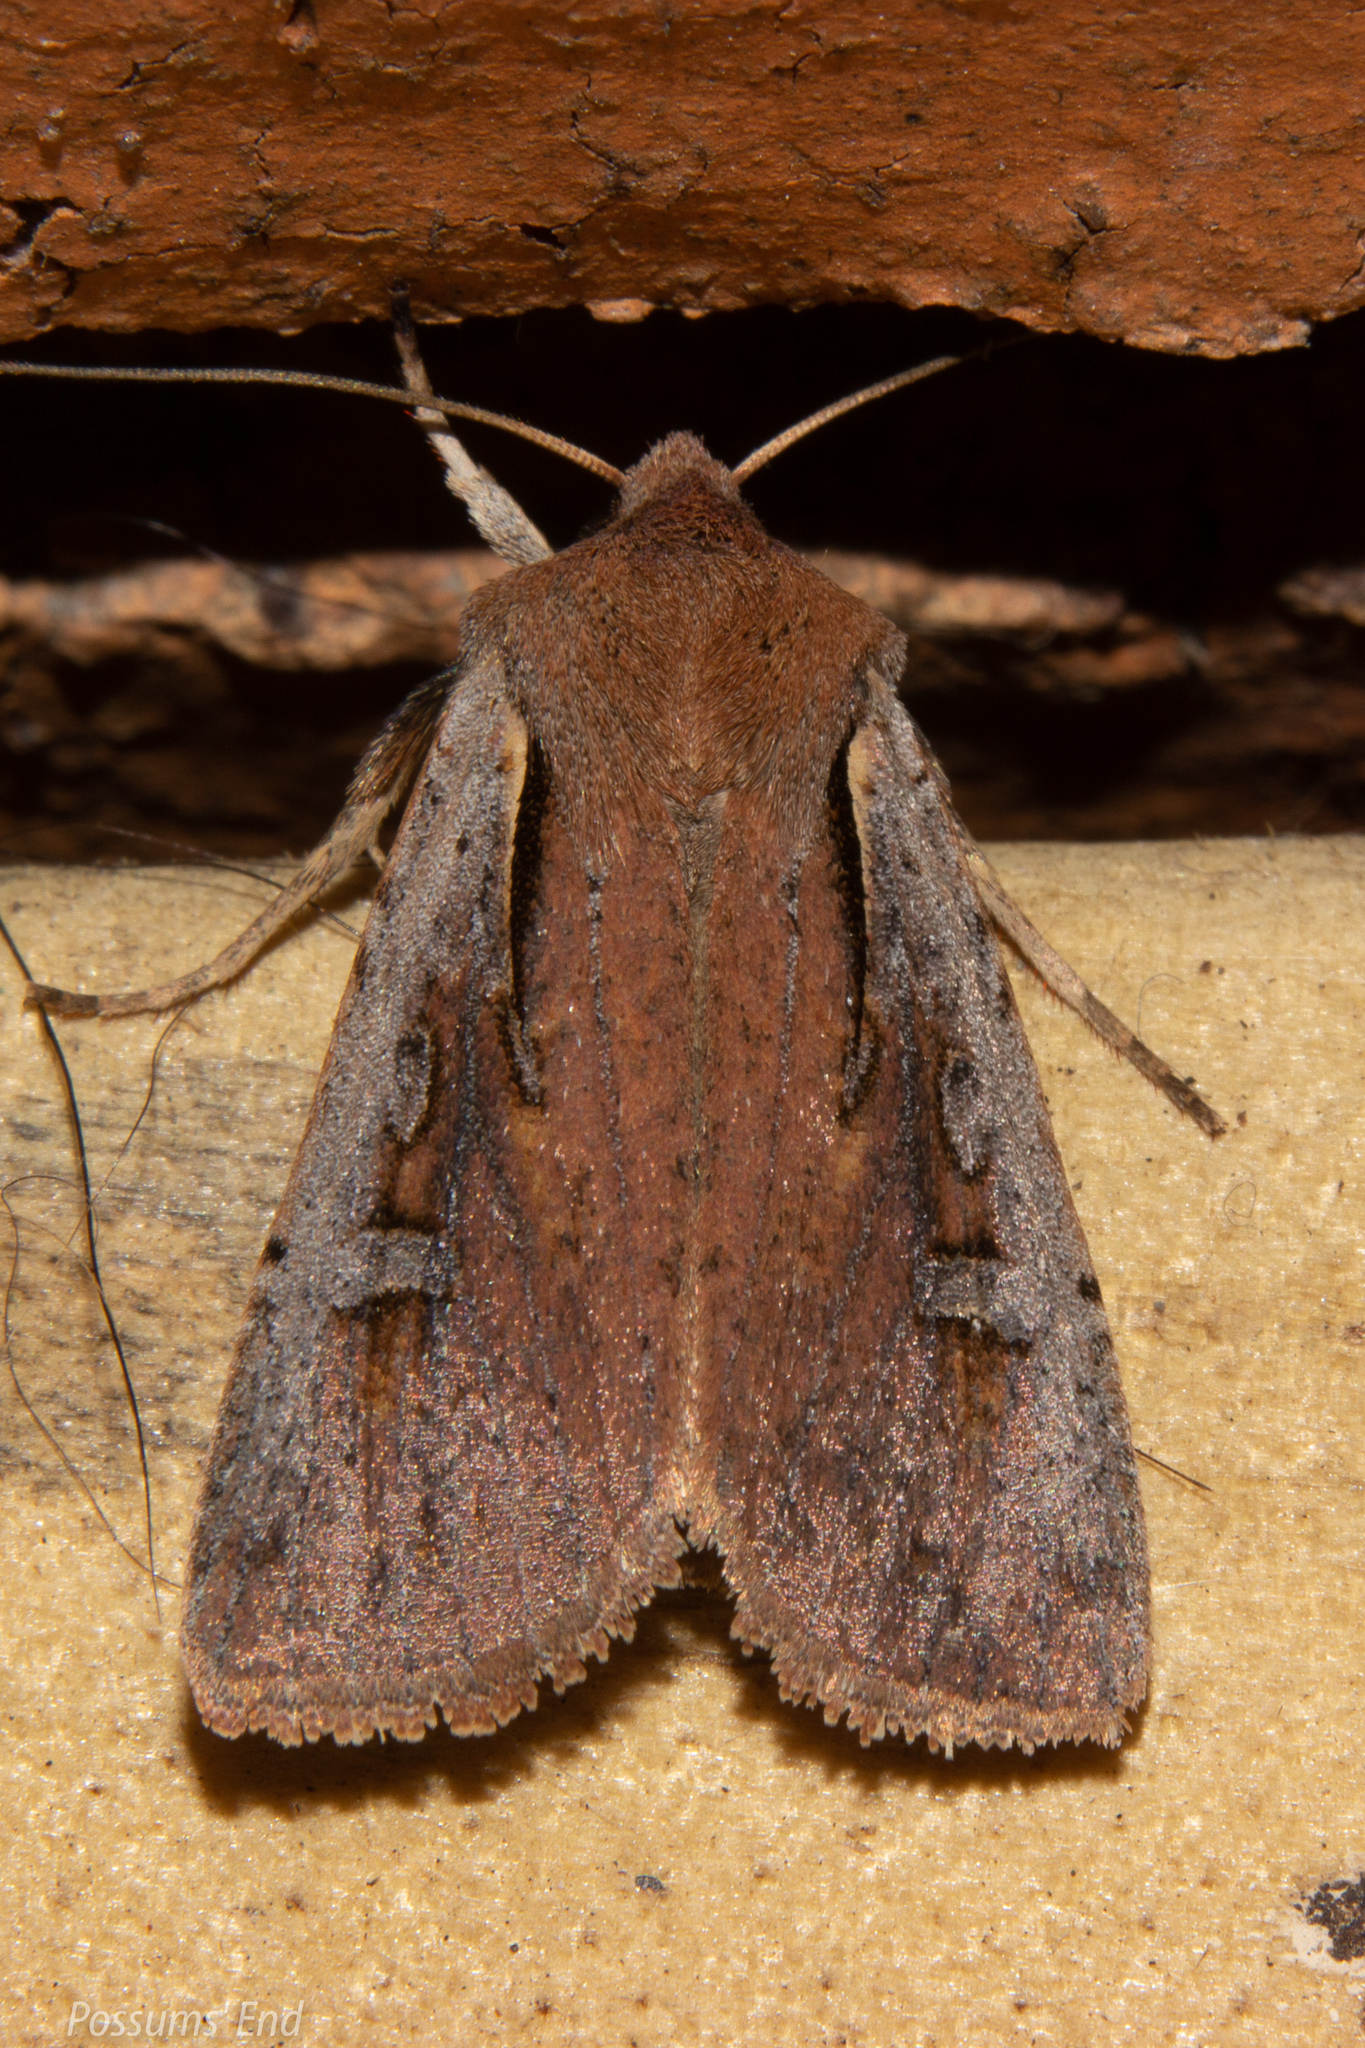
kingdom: Animalia
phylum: Arthropoda
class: Insecta
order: Lepidoptera
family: Noctuidae
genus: Ichneutica
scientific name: Ichneutica atristriga
